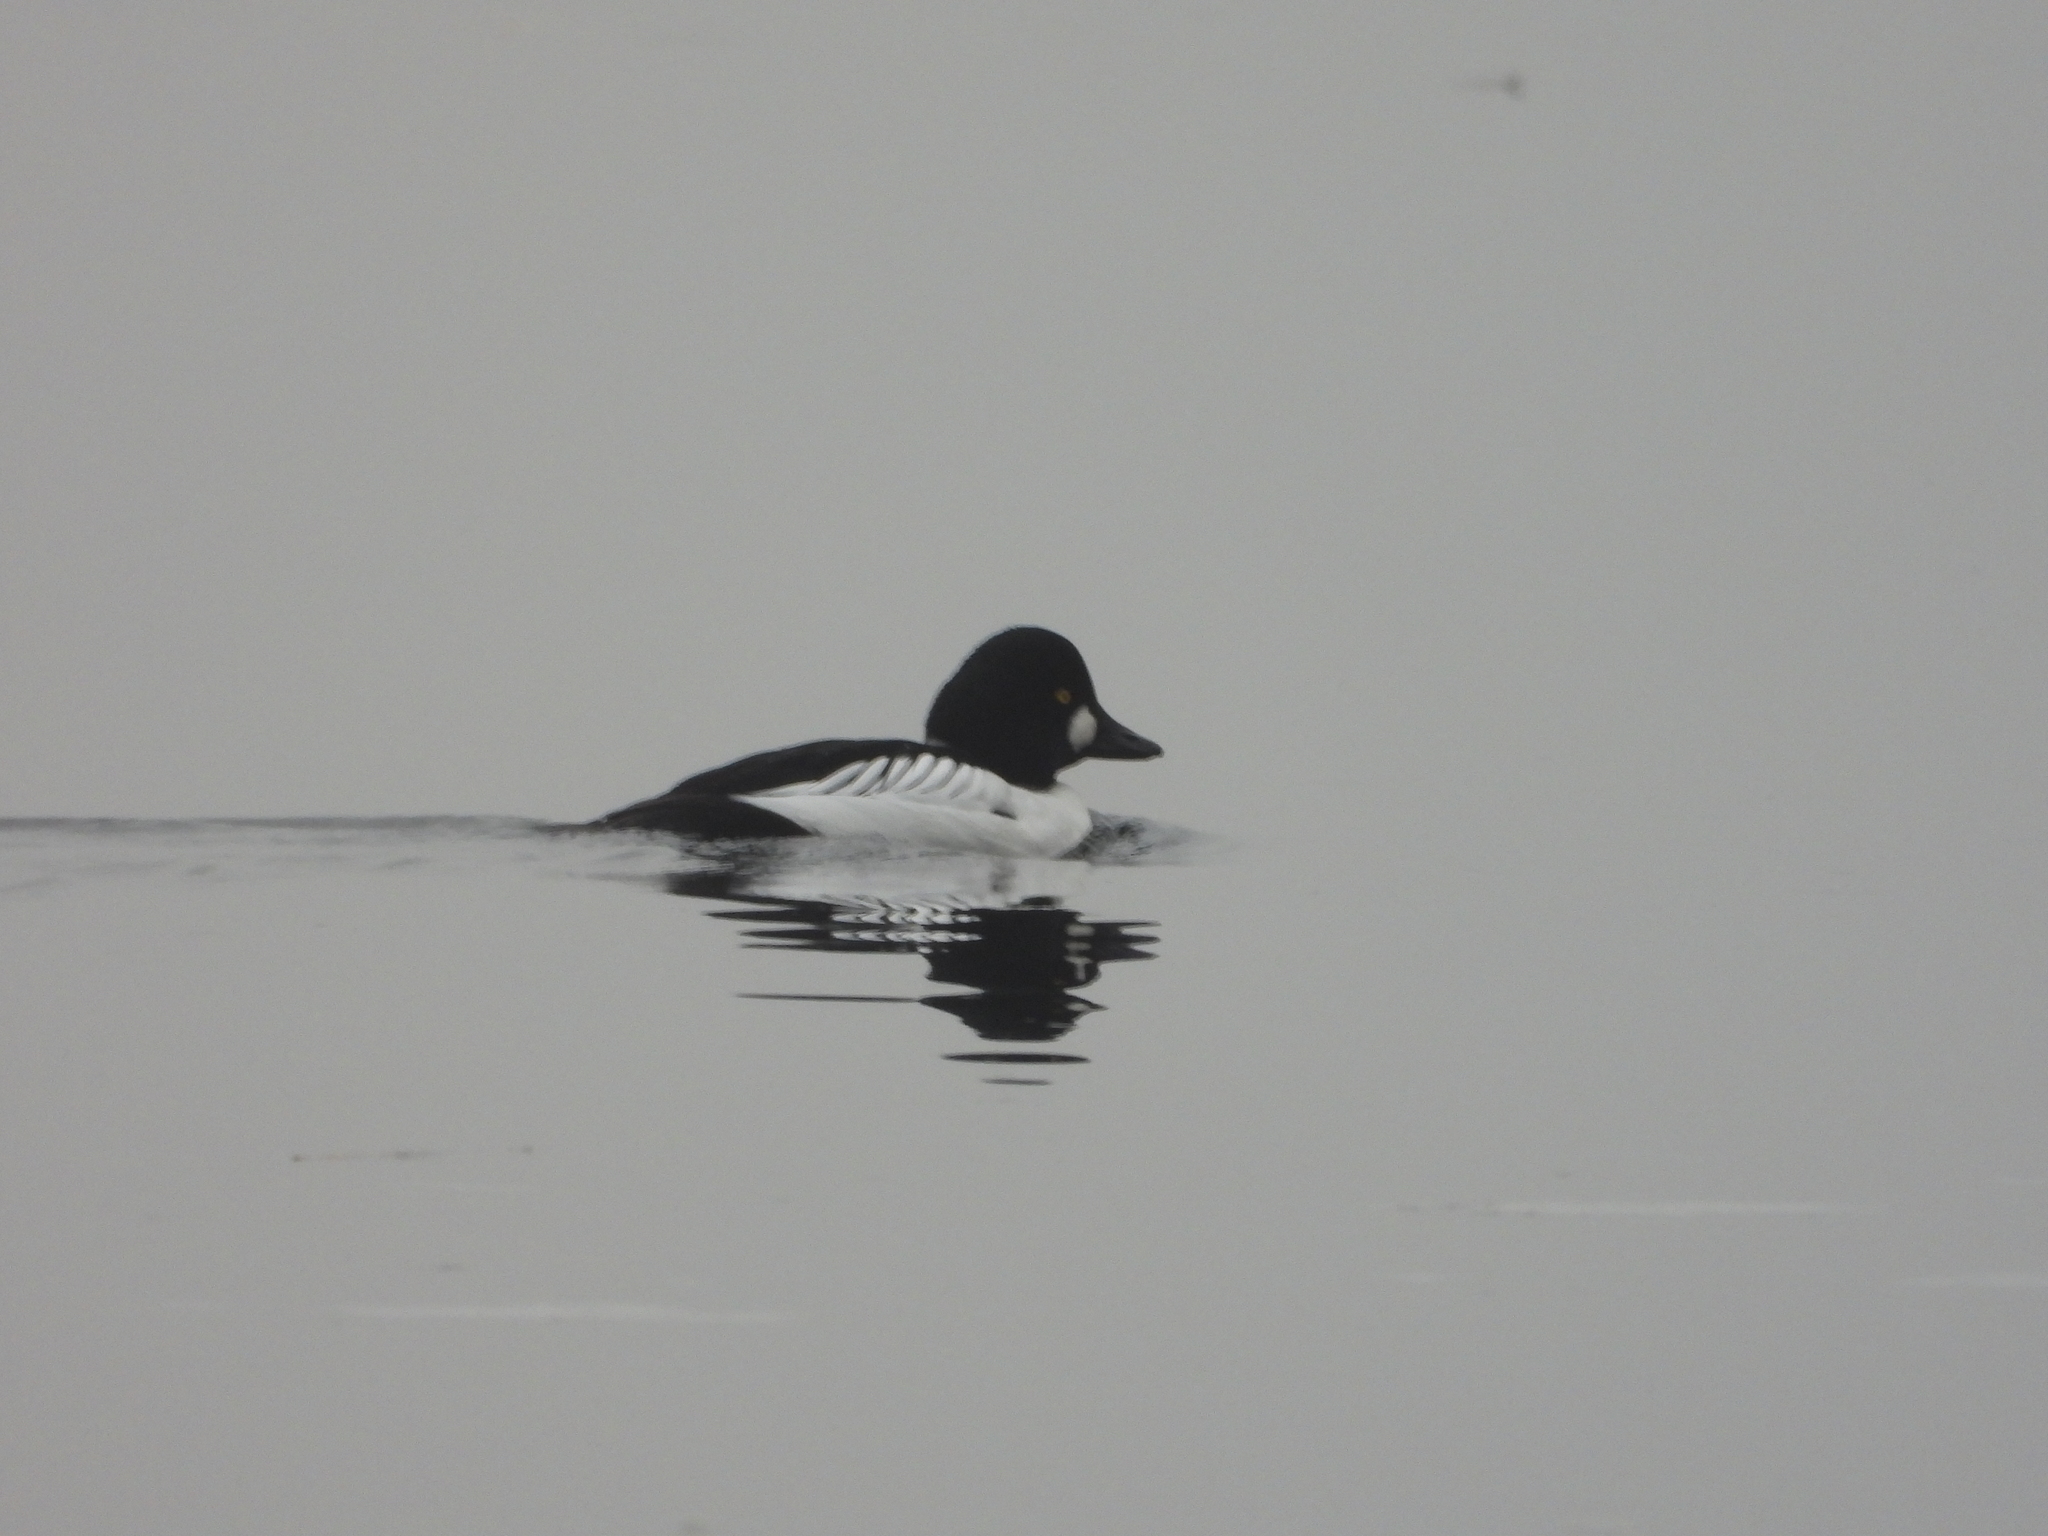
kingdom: Animalia
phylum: Chordata
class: Aves
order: Anseriformes
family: Anatidae
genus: Bucephala
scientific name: Bucephala clangula
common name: Common goldeneye
